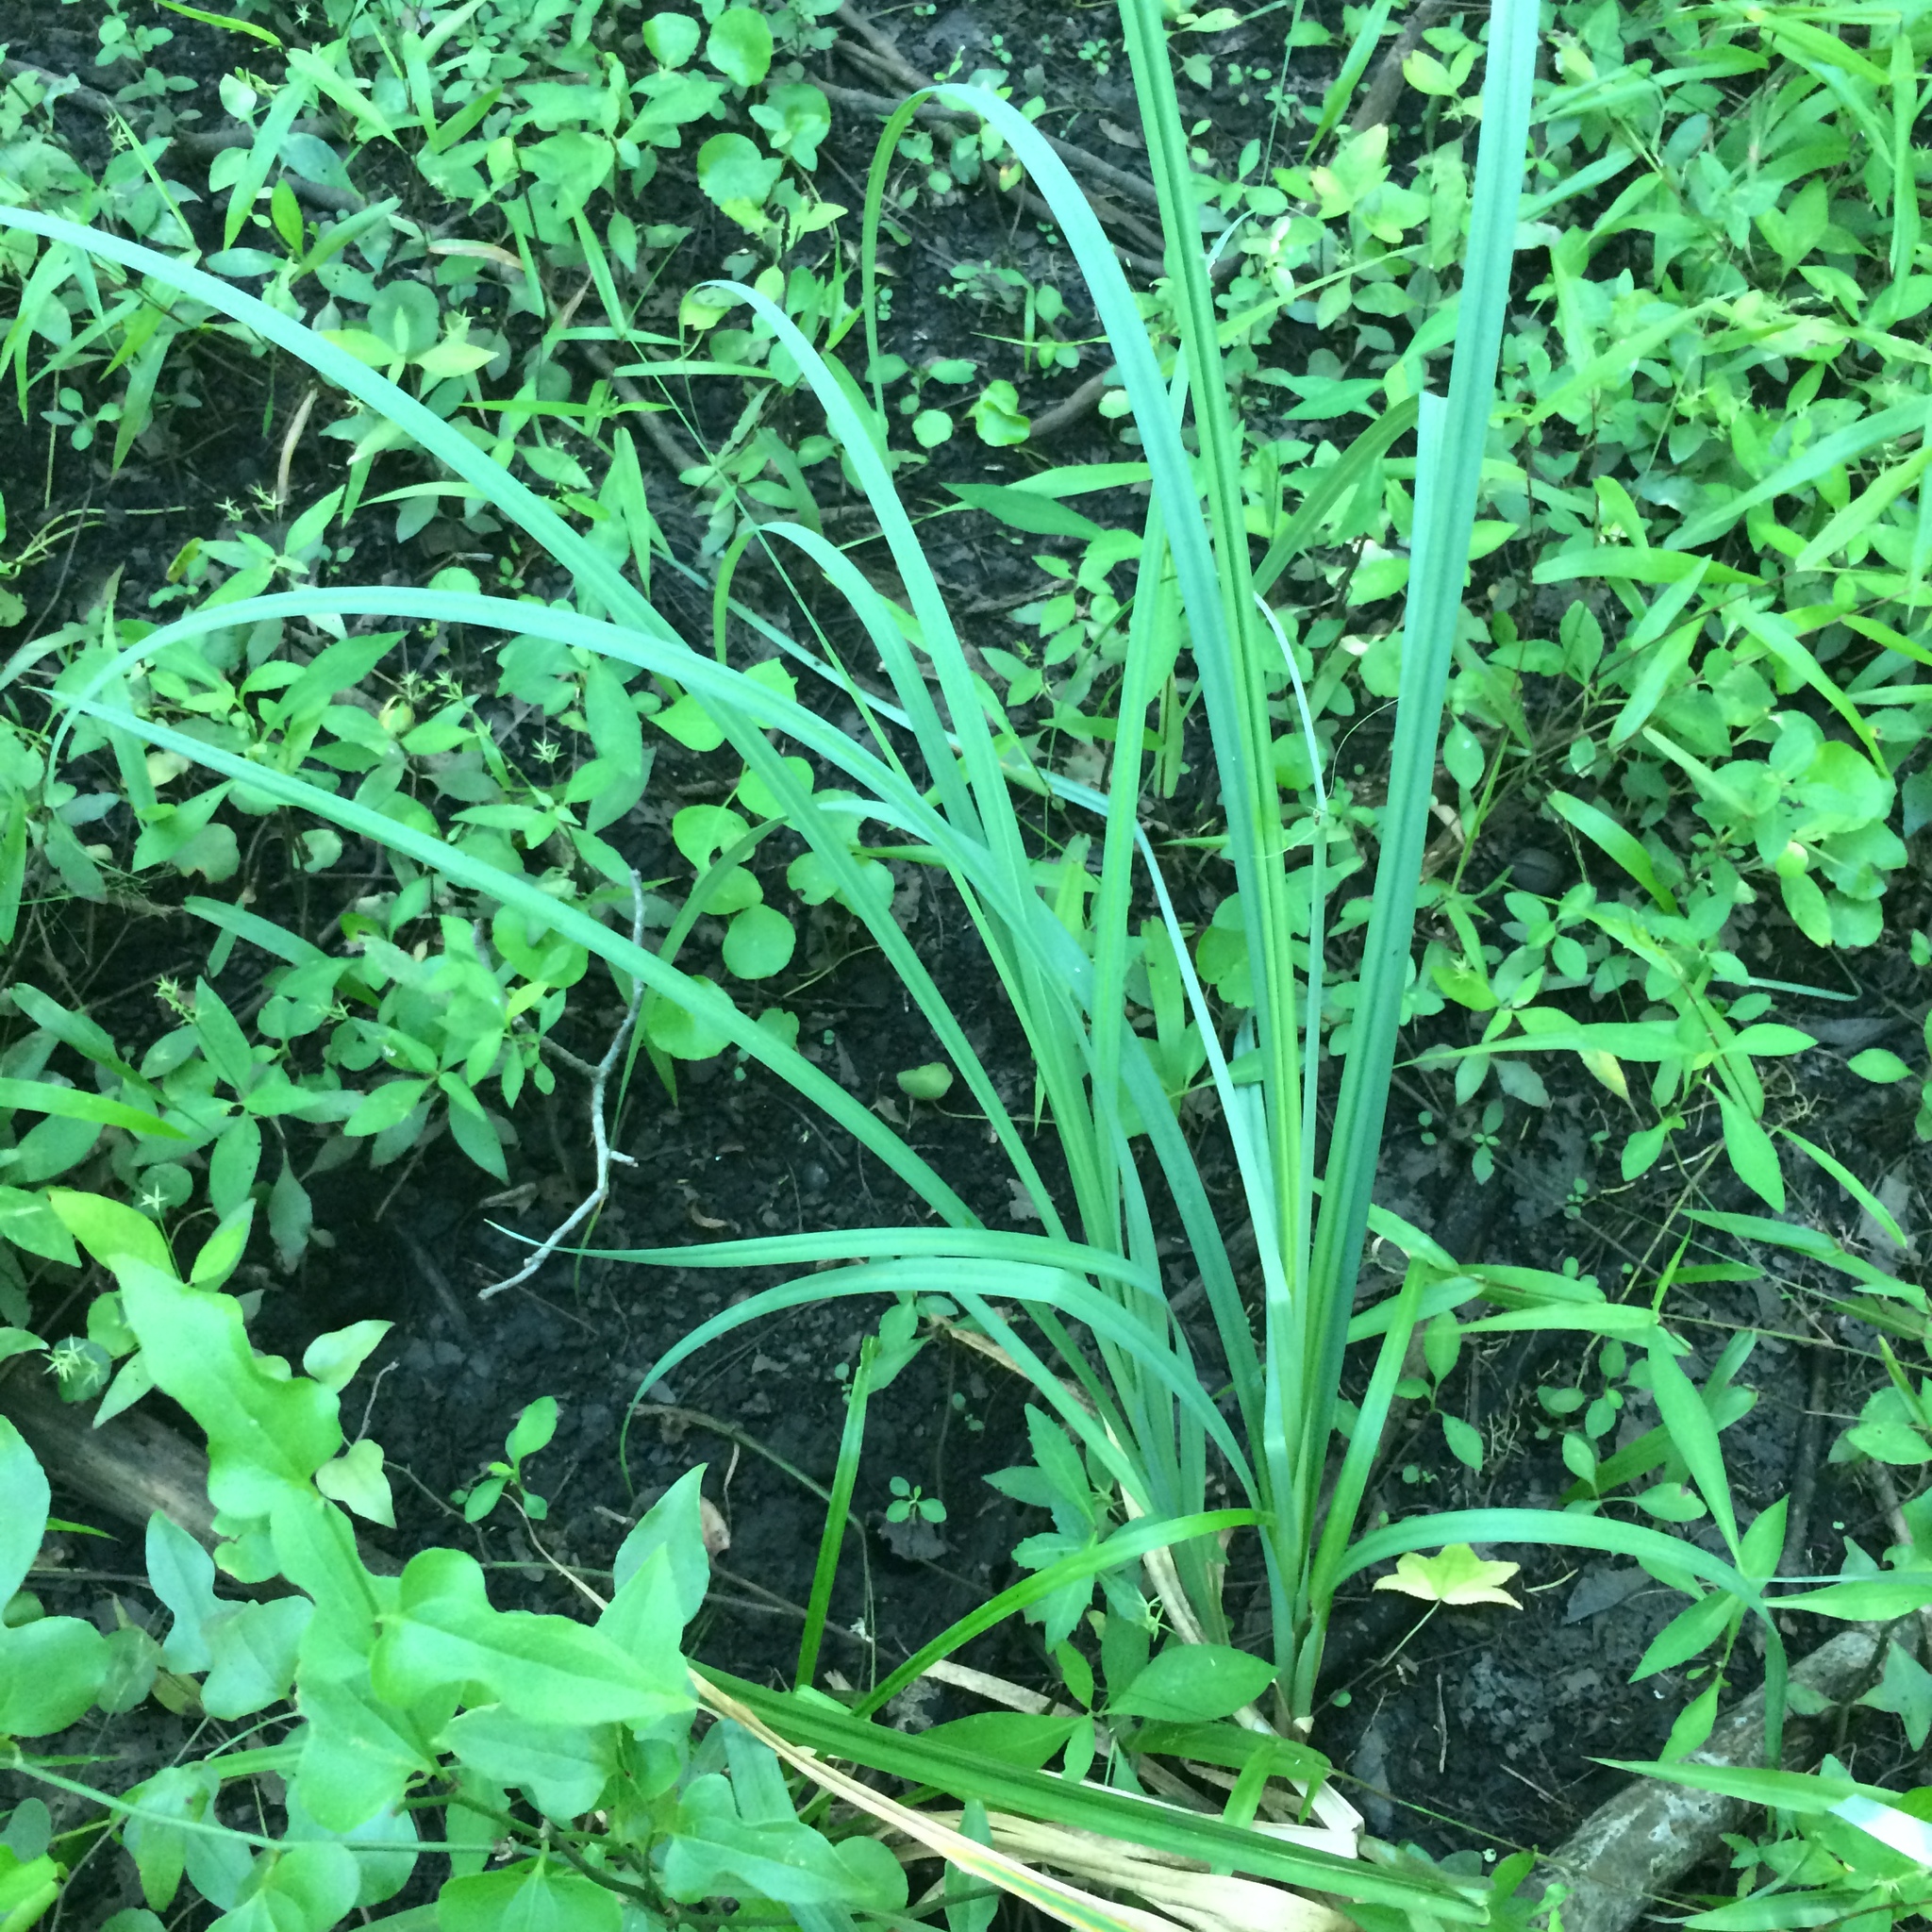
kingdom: Plantae
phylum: Tracheophyta
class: Liliopsida
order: Poales
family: Cyperaceae
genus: Carex
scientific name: Carex crus-corvi
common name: Crow-spur sedge
